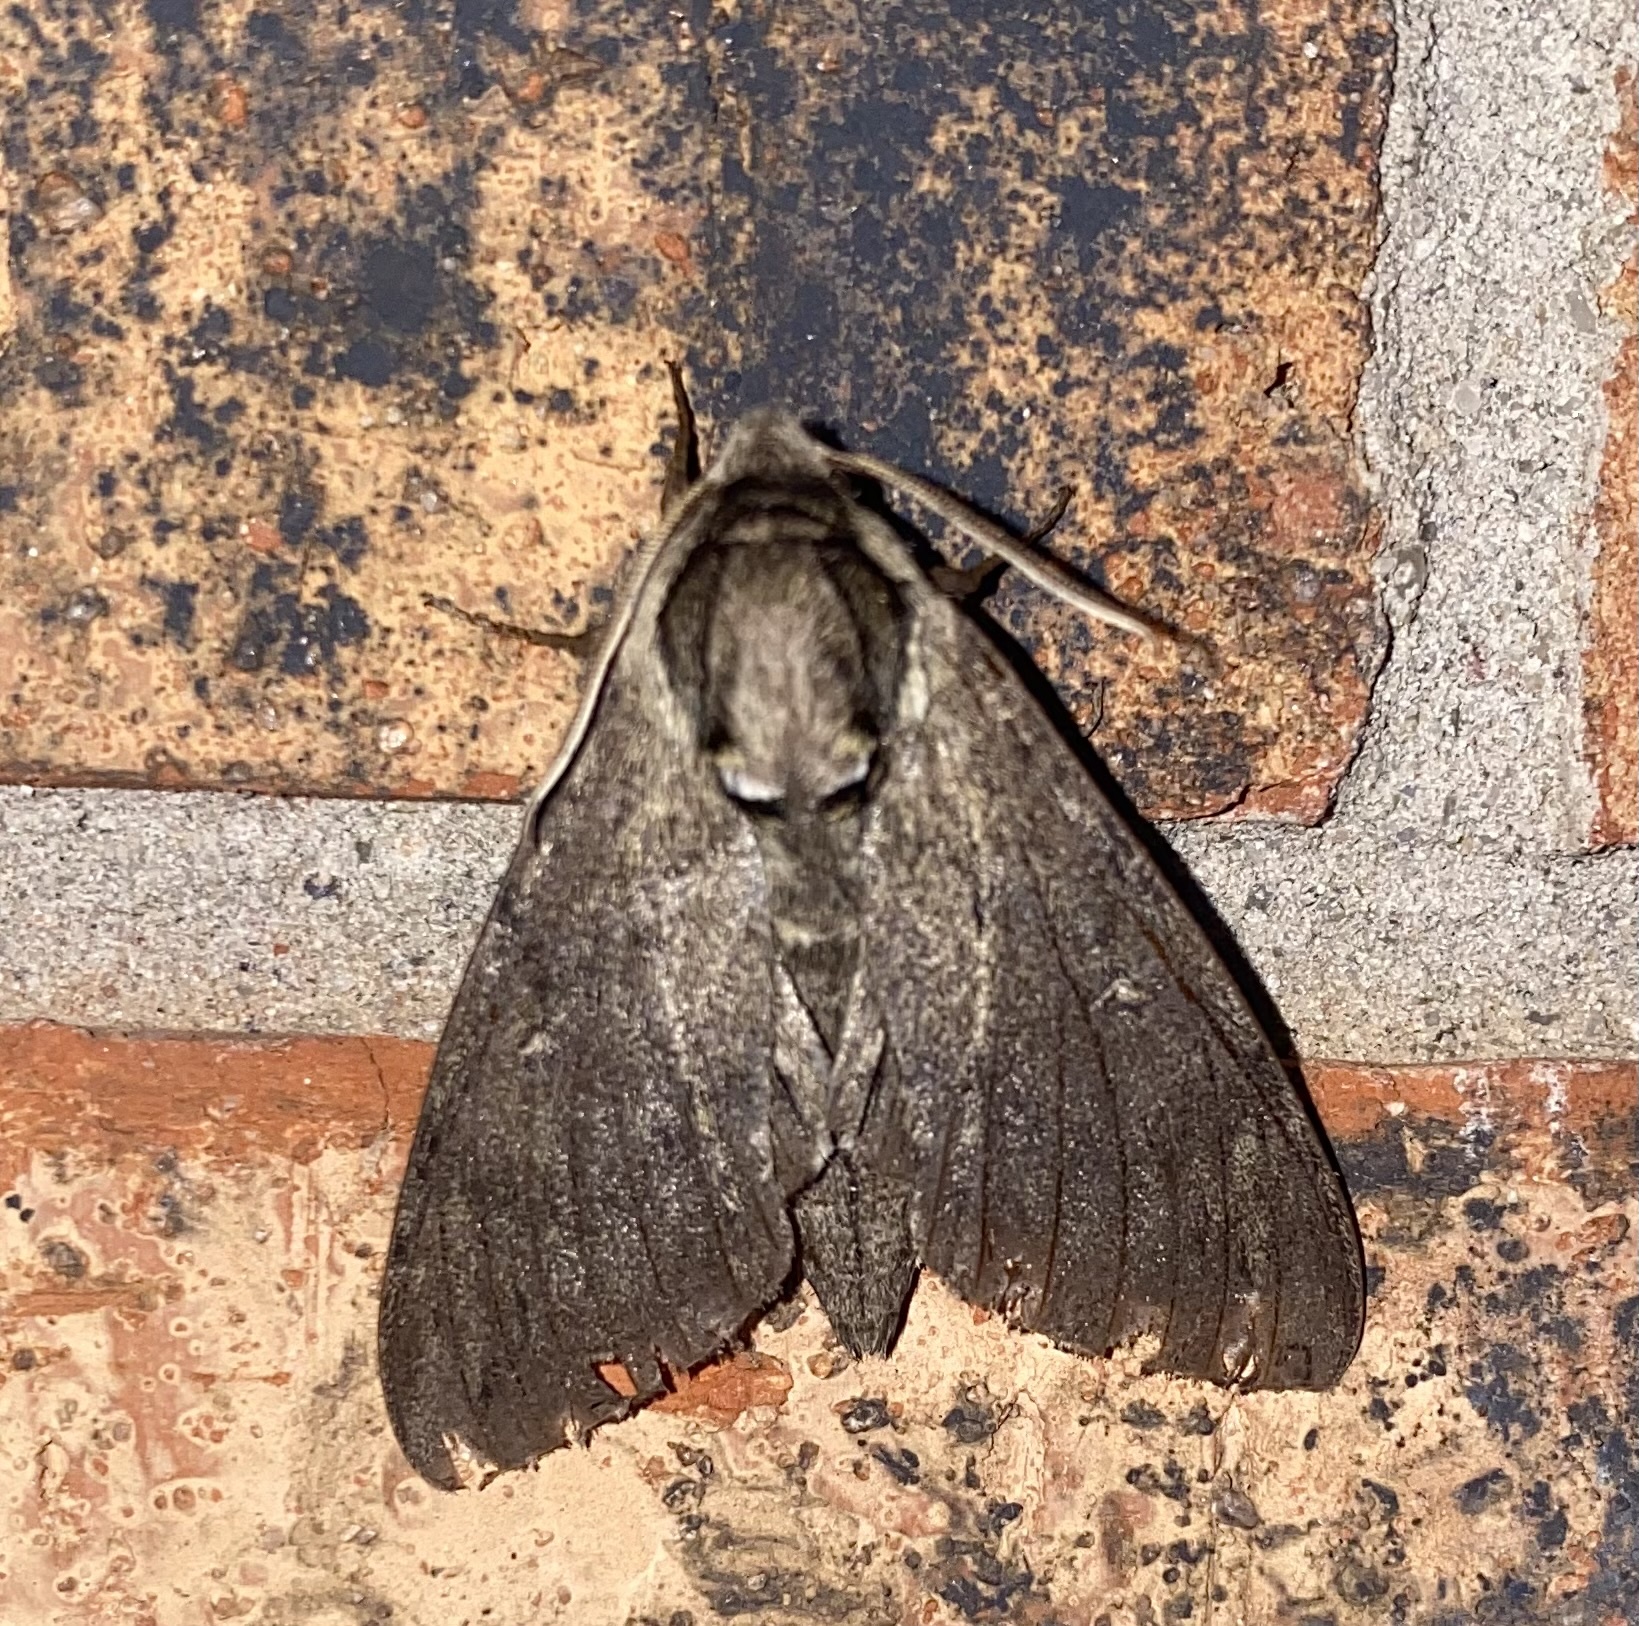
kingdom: Animalia
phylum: Arthropoda
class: Insecta
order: Lepidoptera
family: Sphingidae
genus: Ceratomia
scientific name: Ceratomia catalpae
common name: Catalpa hornworm
